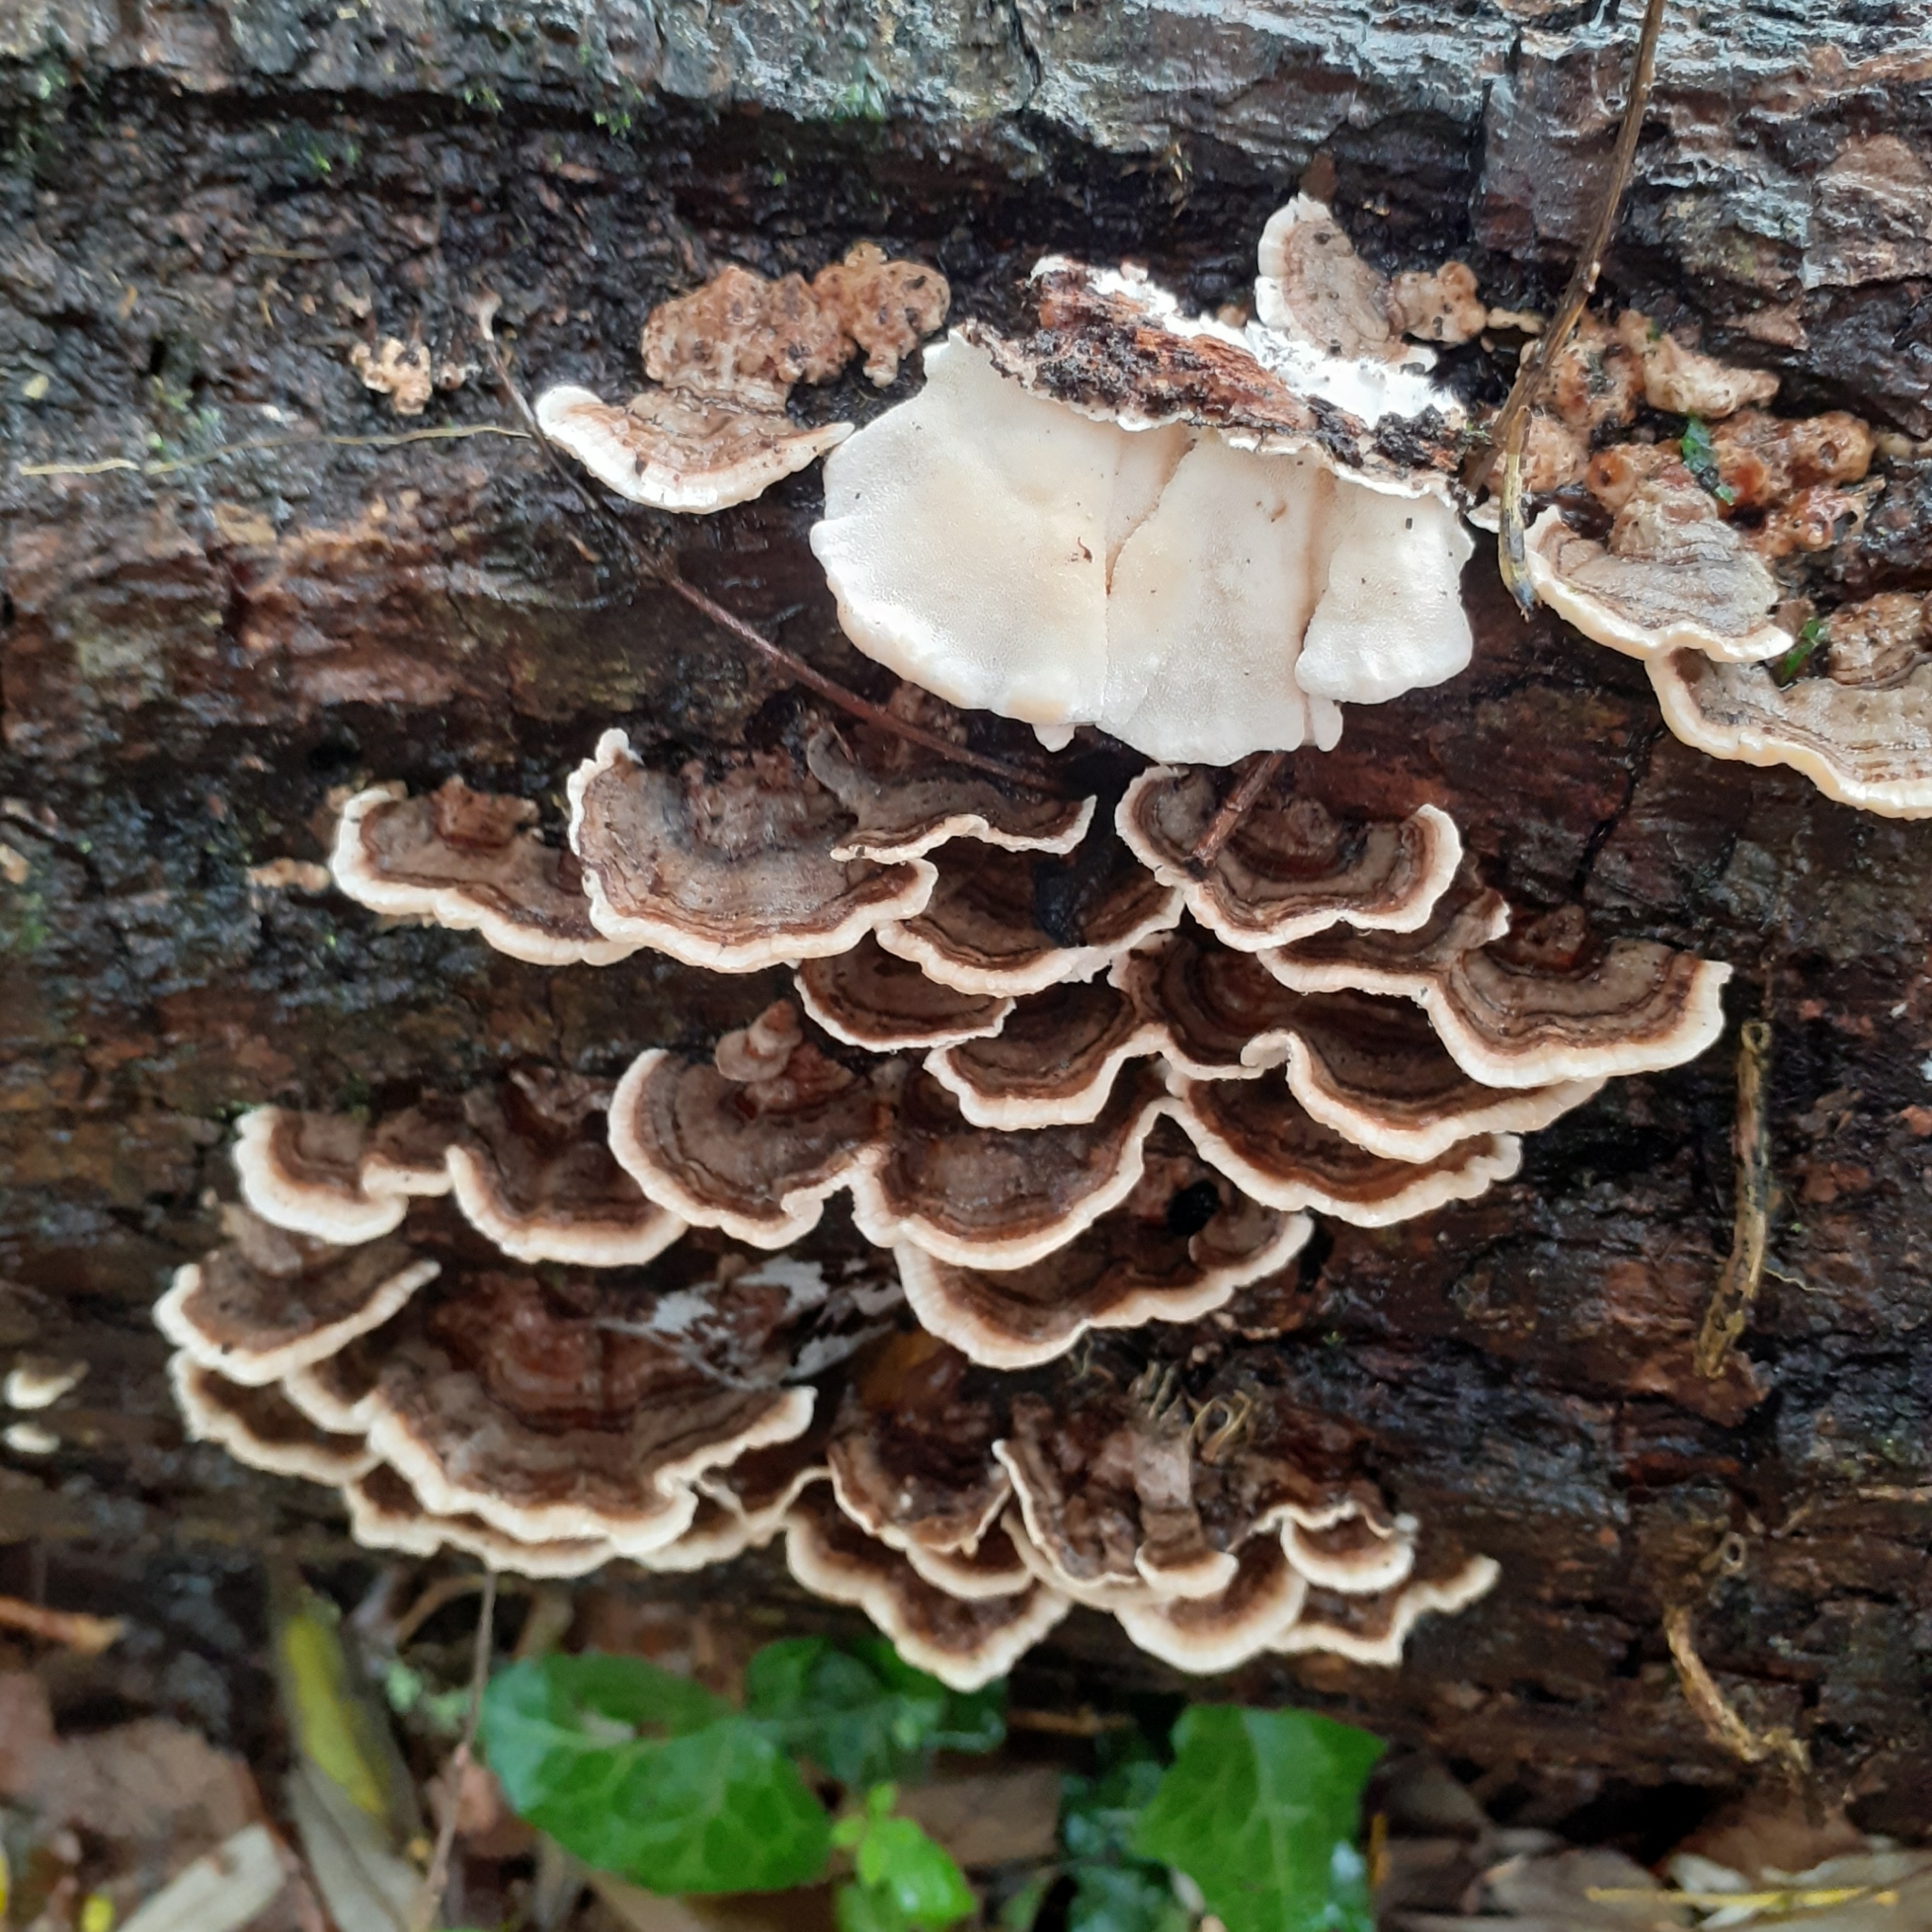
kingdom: Fungi
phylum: Basidiomycota
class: Agaricomycetes
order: Polyporales
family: Polyporaceae
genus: Trametes
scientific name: Trametes versicolor
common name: Turkeytail
